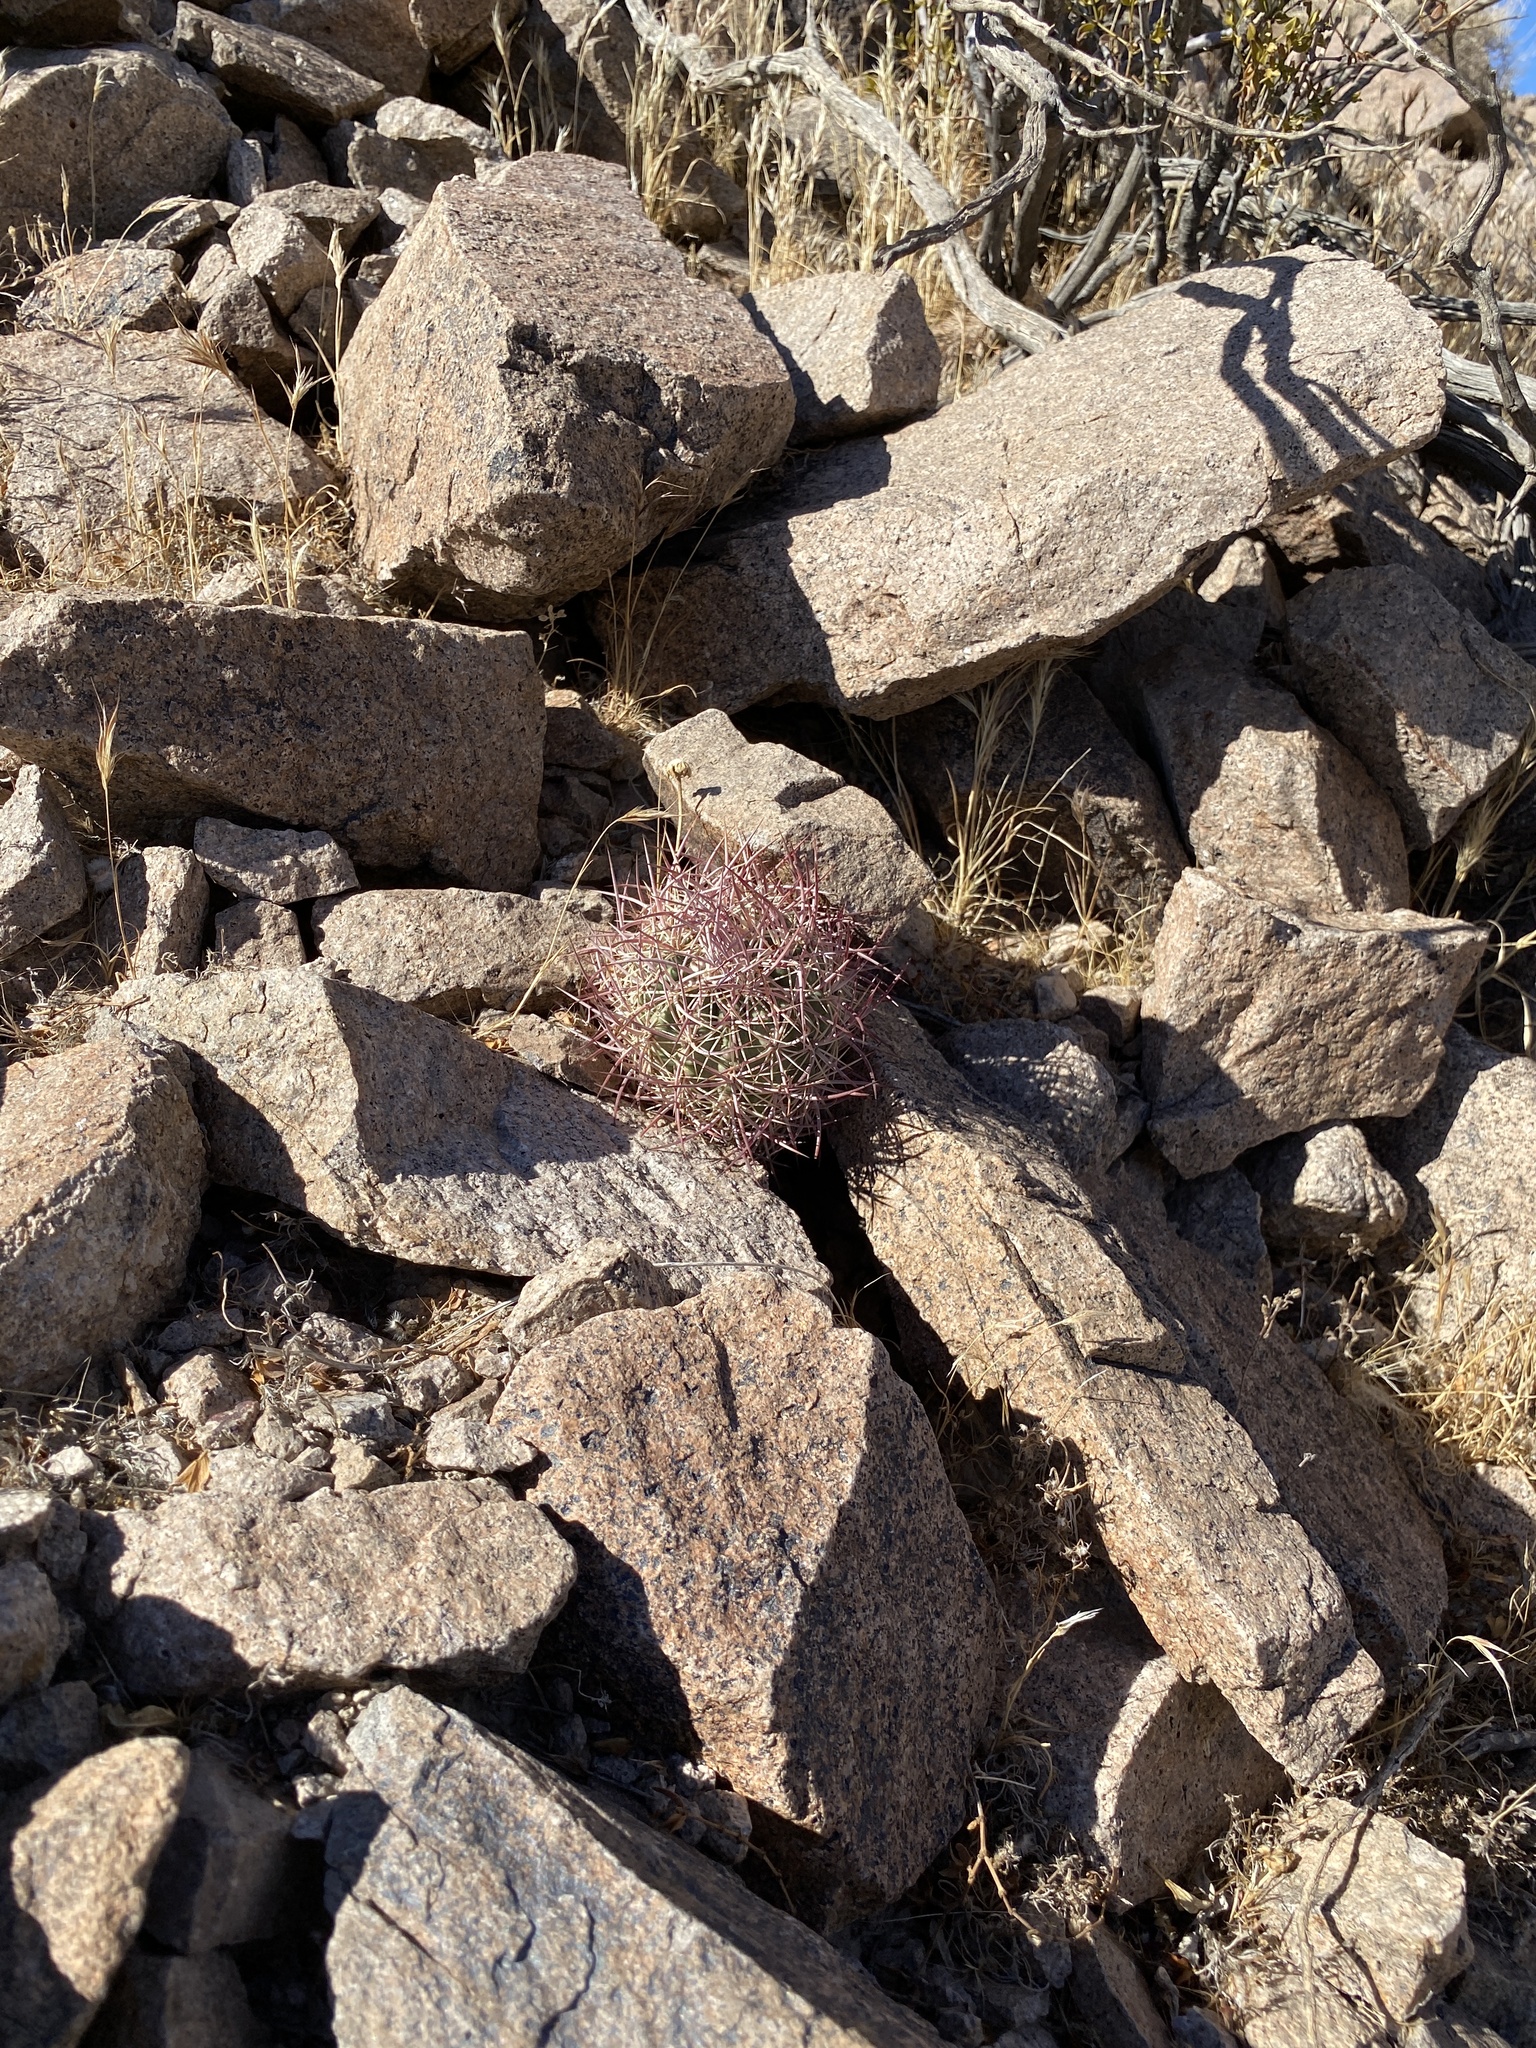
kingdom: Plantae
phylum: Tracheophyta
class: Magnoliopsida
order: Caryophyllales
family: Cactaceae
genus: Sclerocactus
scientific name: Sclerocactus johnsonii
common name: Eight-spine fishhook cactus
